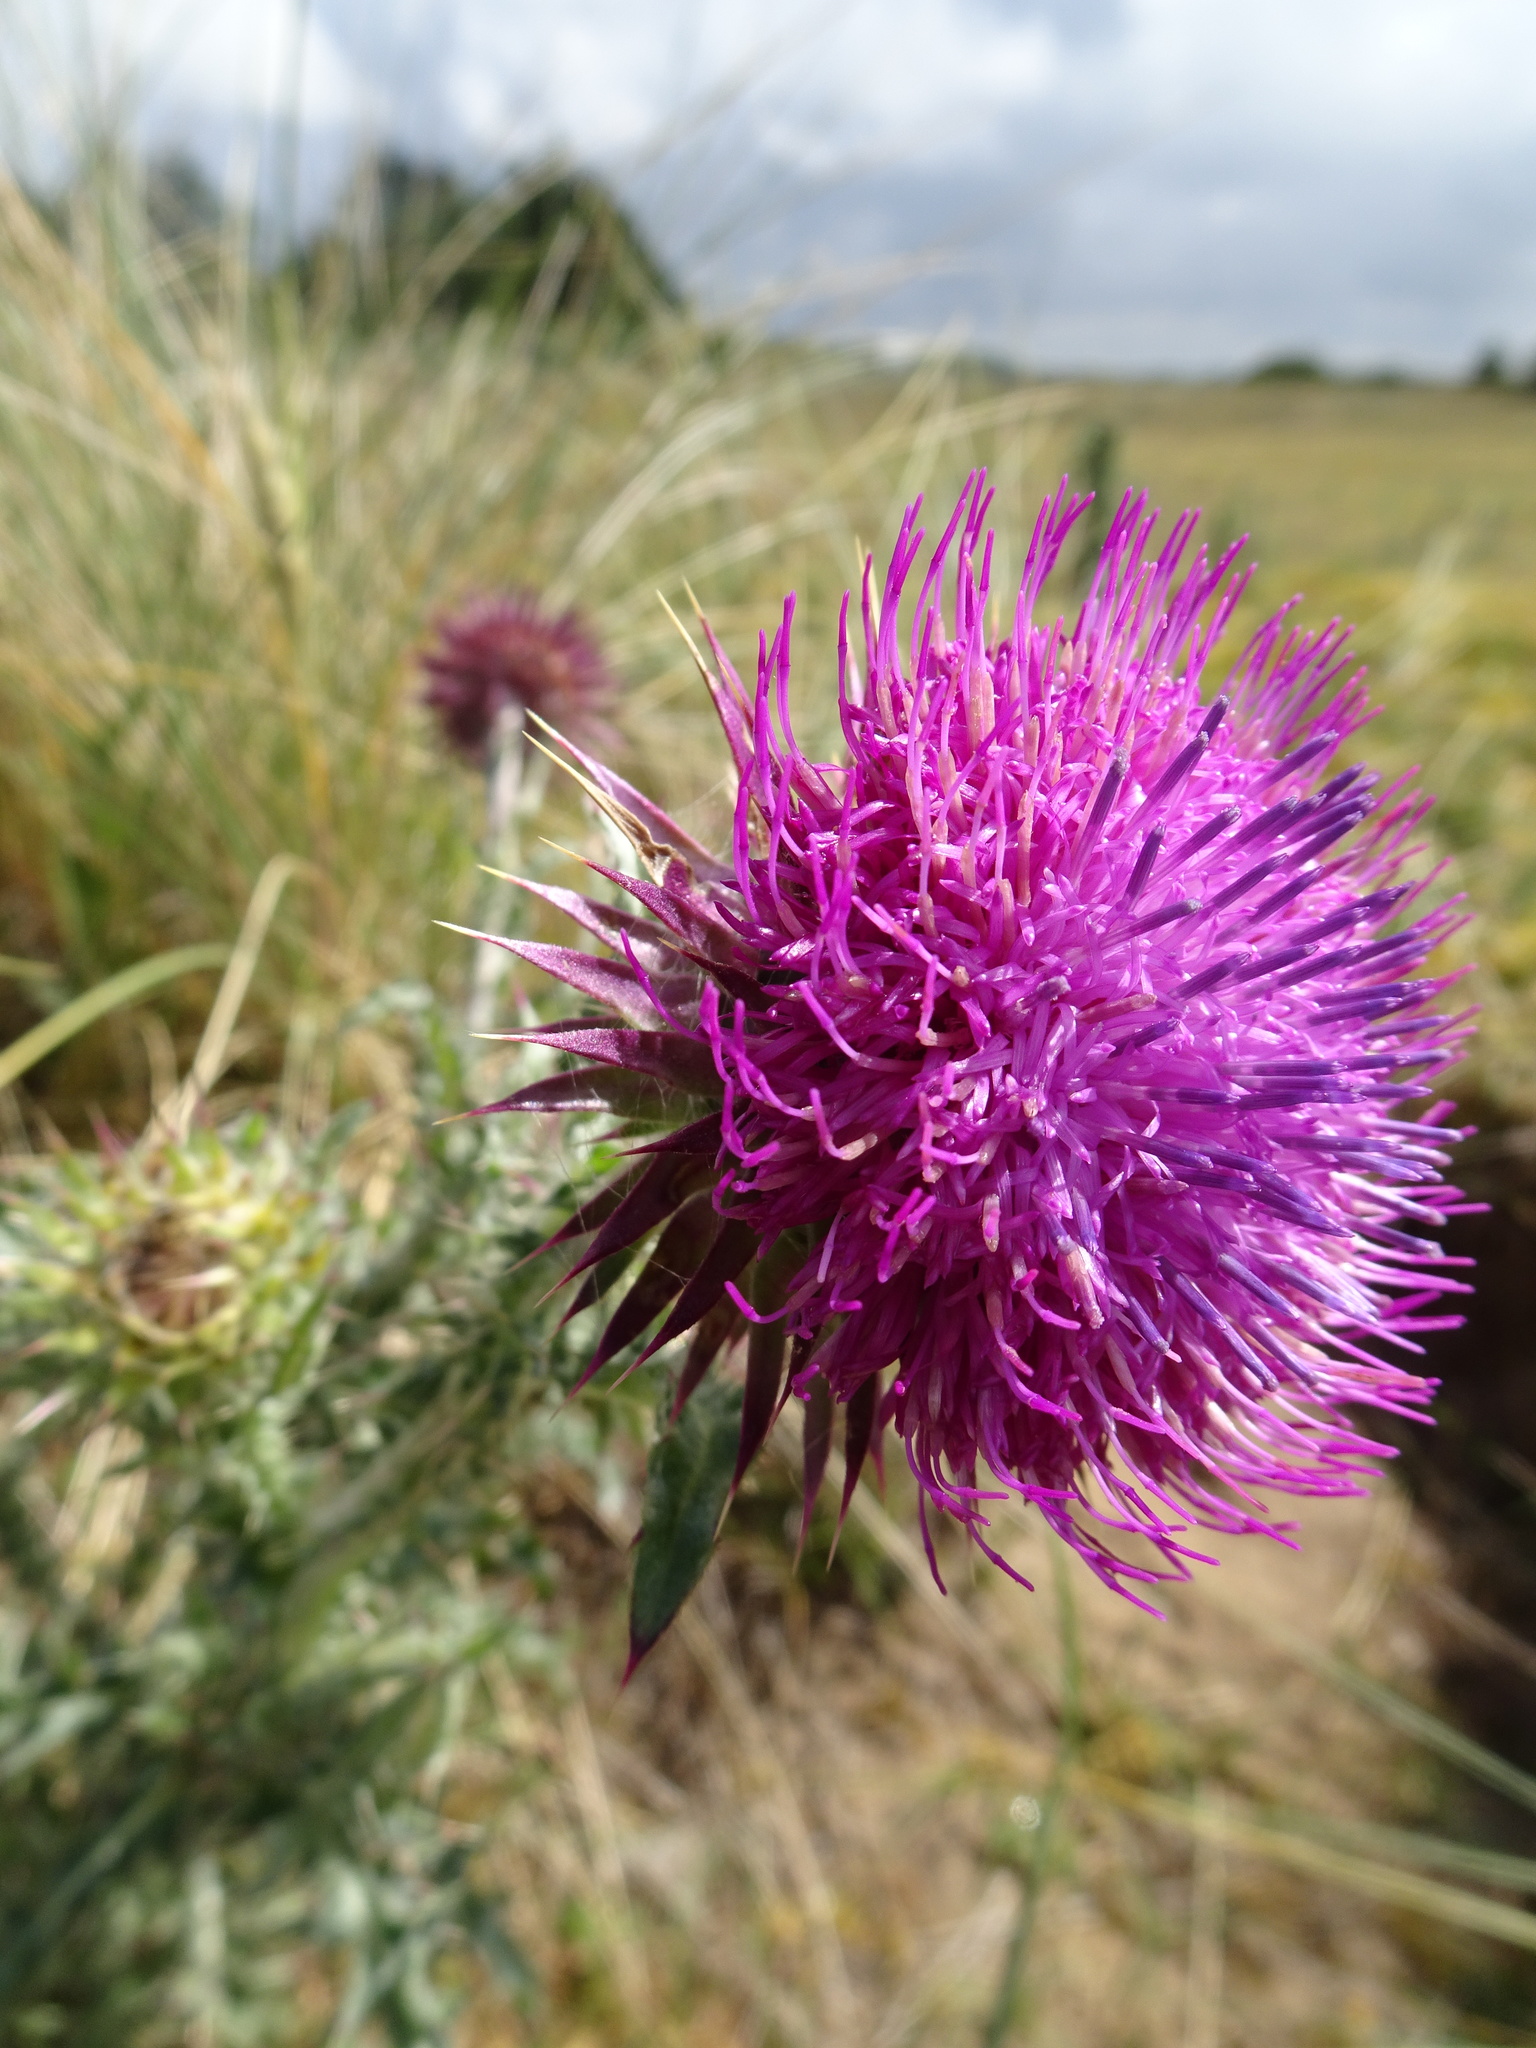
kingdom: Plantae
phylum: Tracheophyta
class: Magnoliopsida
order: Asterales
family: Asteraceae
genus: Carduus
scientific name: Carduus nutans
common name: Musk thistle
